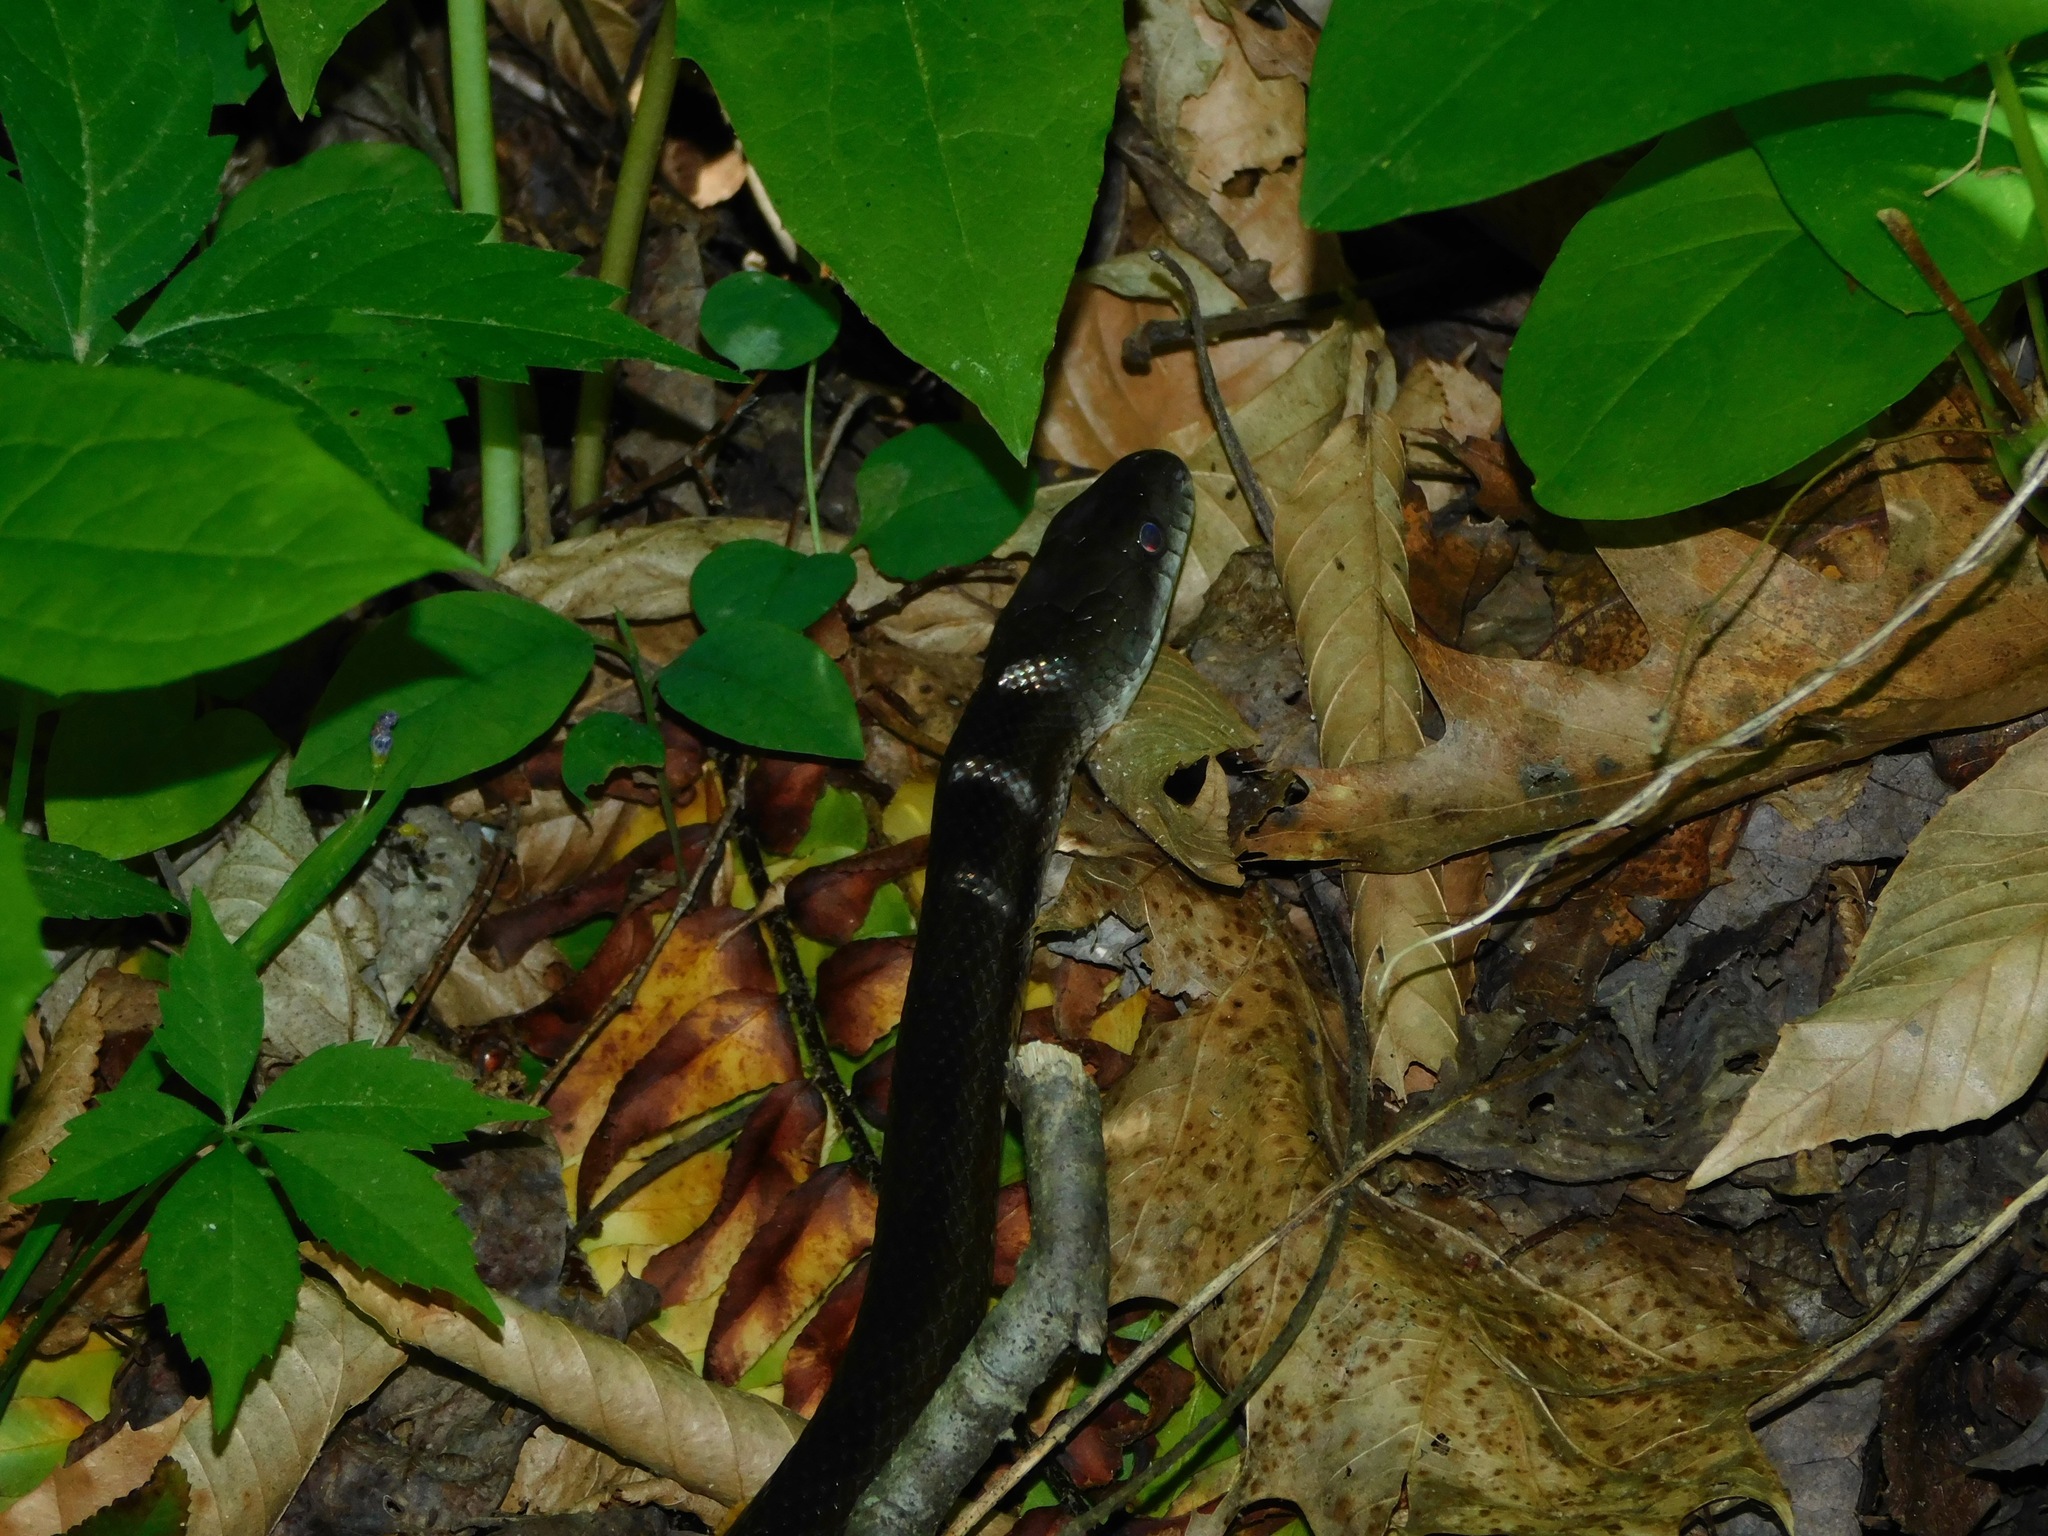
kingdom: Animalia
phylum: Chordata
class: Squamata
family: Colubridae
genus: Pantherophis
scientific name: Pantherophis alleghaniensis
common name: Eastern rat snake
